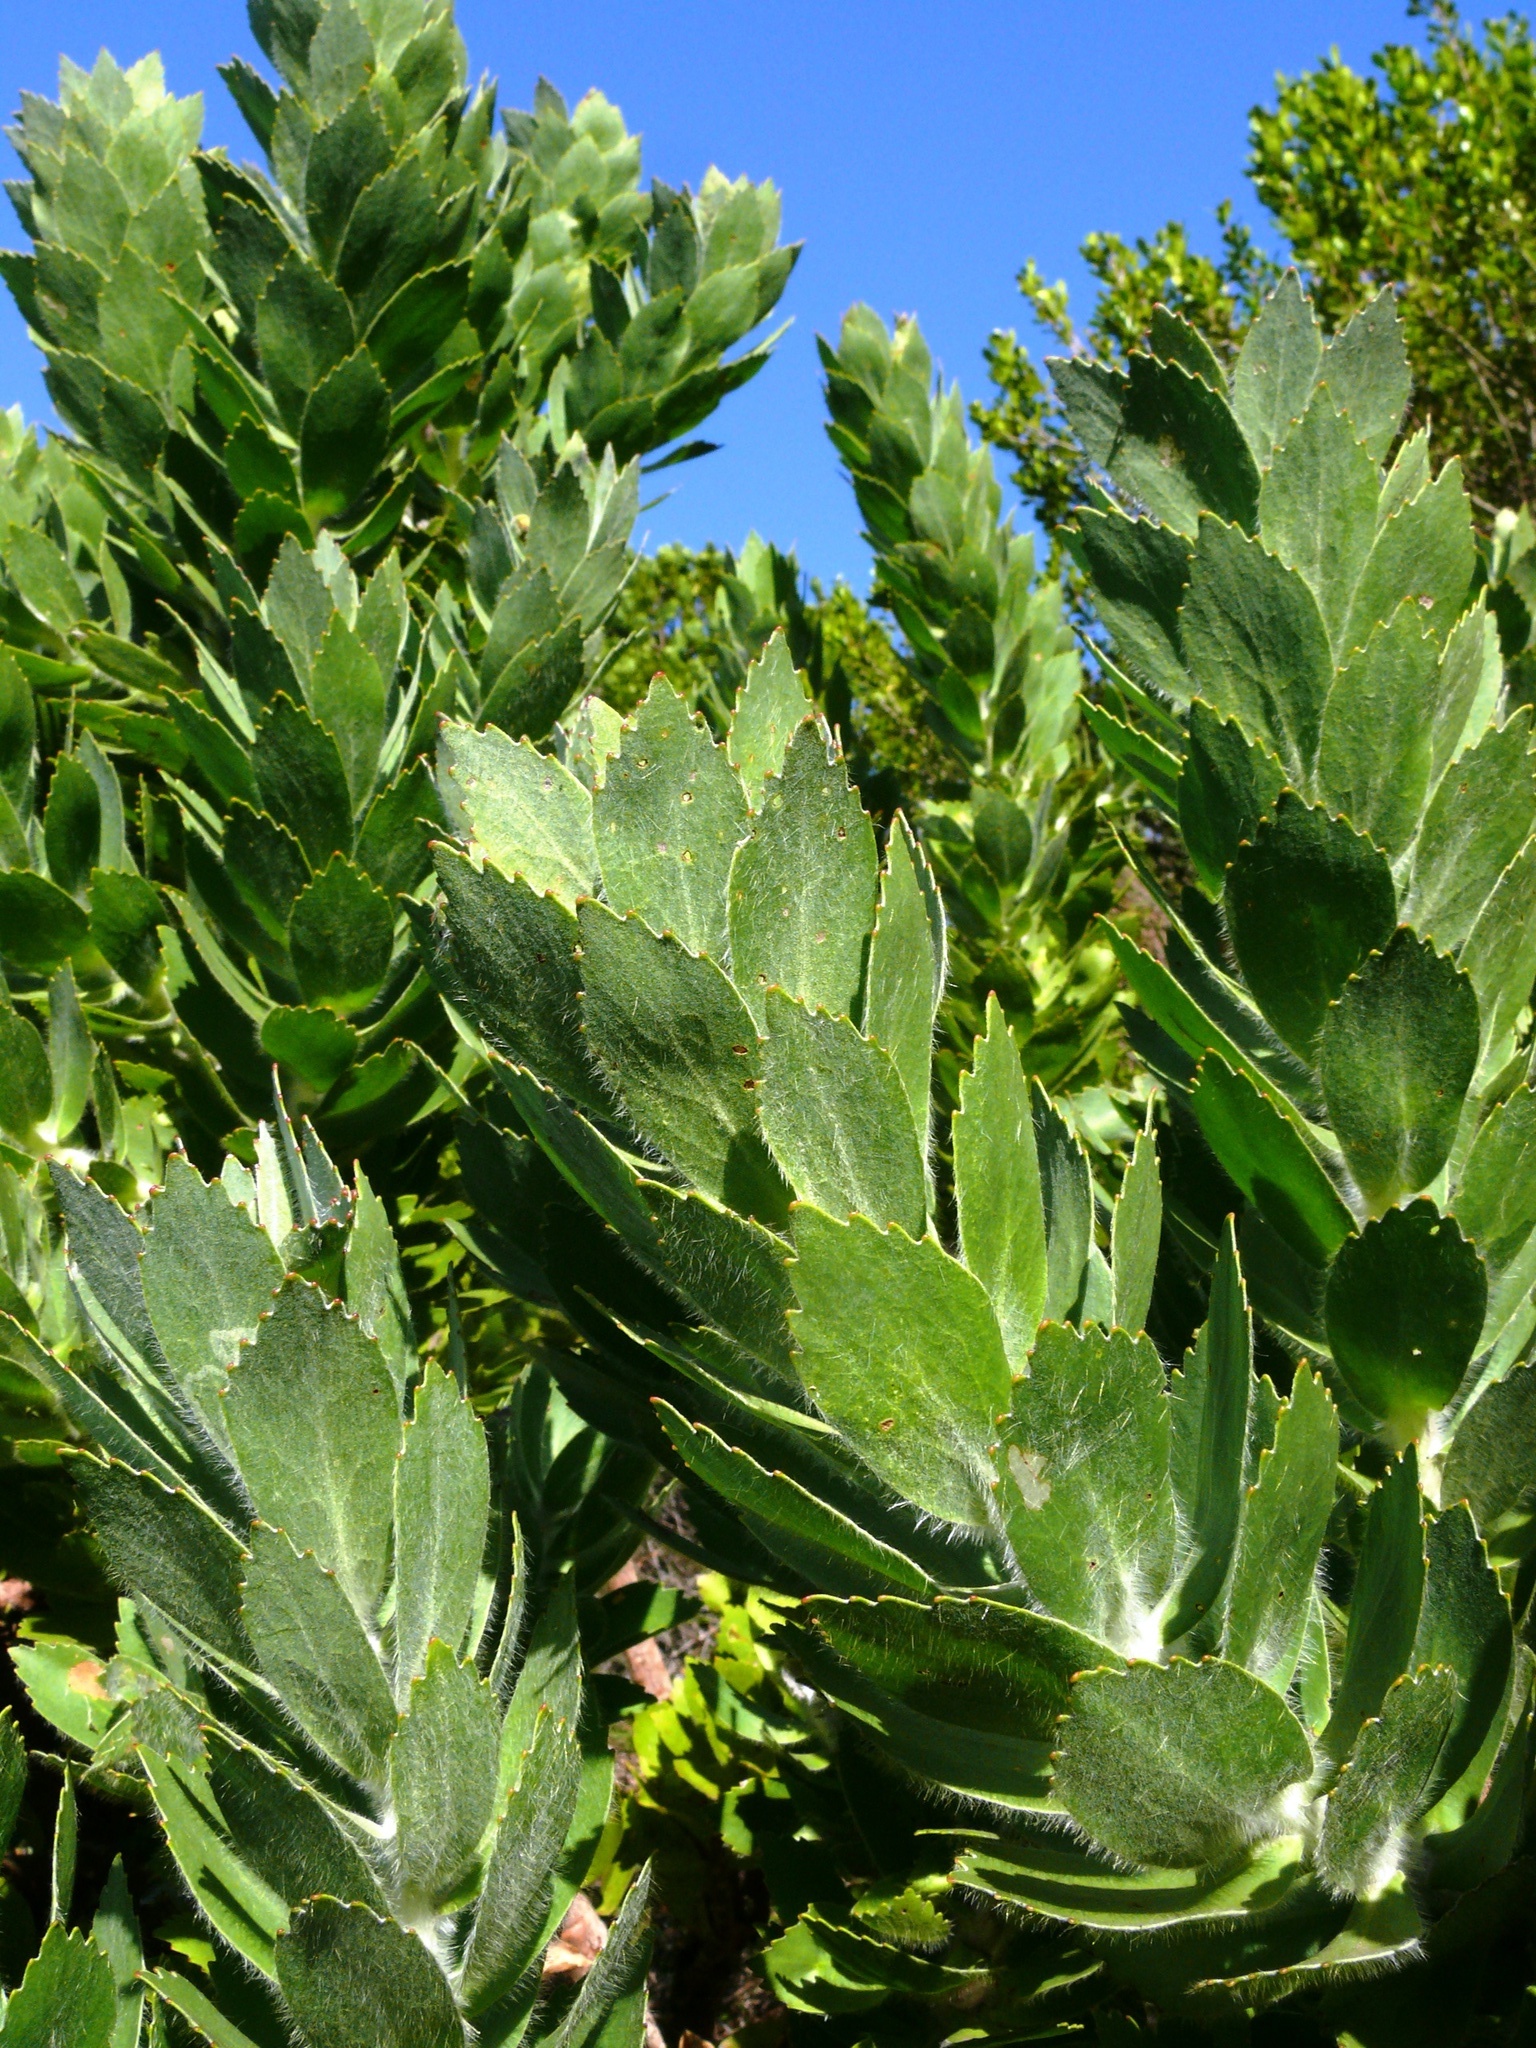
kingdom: Plantae
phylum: Tracheophyta
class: Magnoliopsida
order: Proteales
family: Proteaceae
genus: Leucospermum
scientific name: Leucospermum conocarpodendron
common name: Tree pincushion
